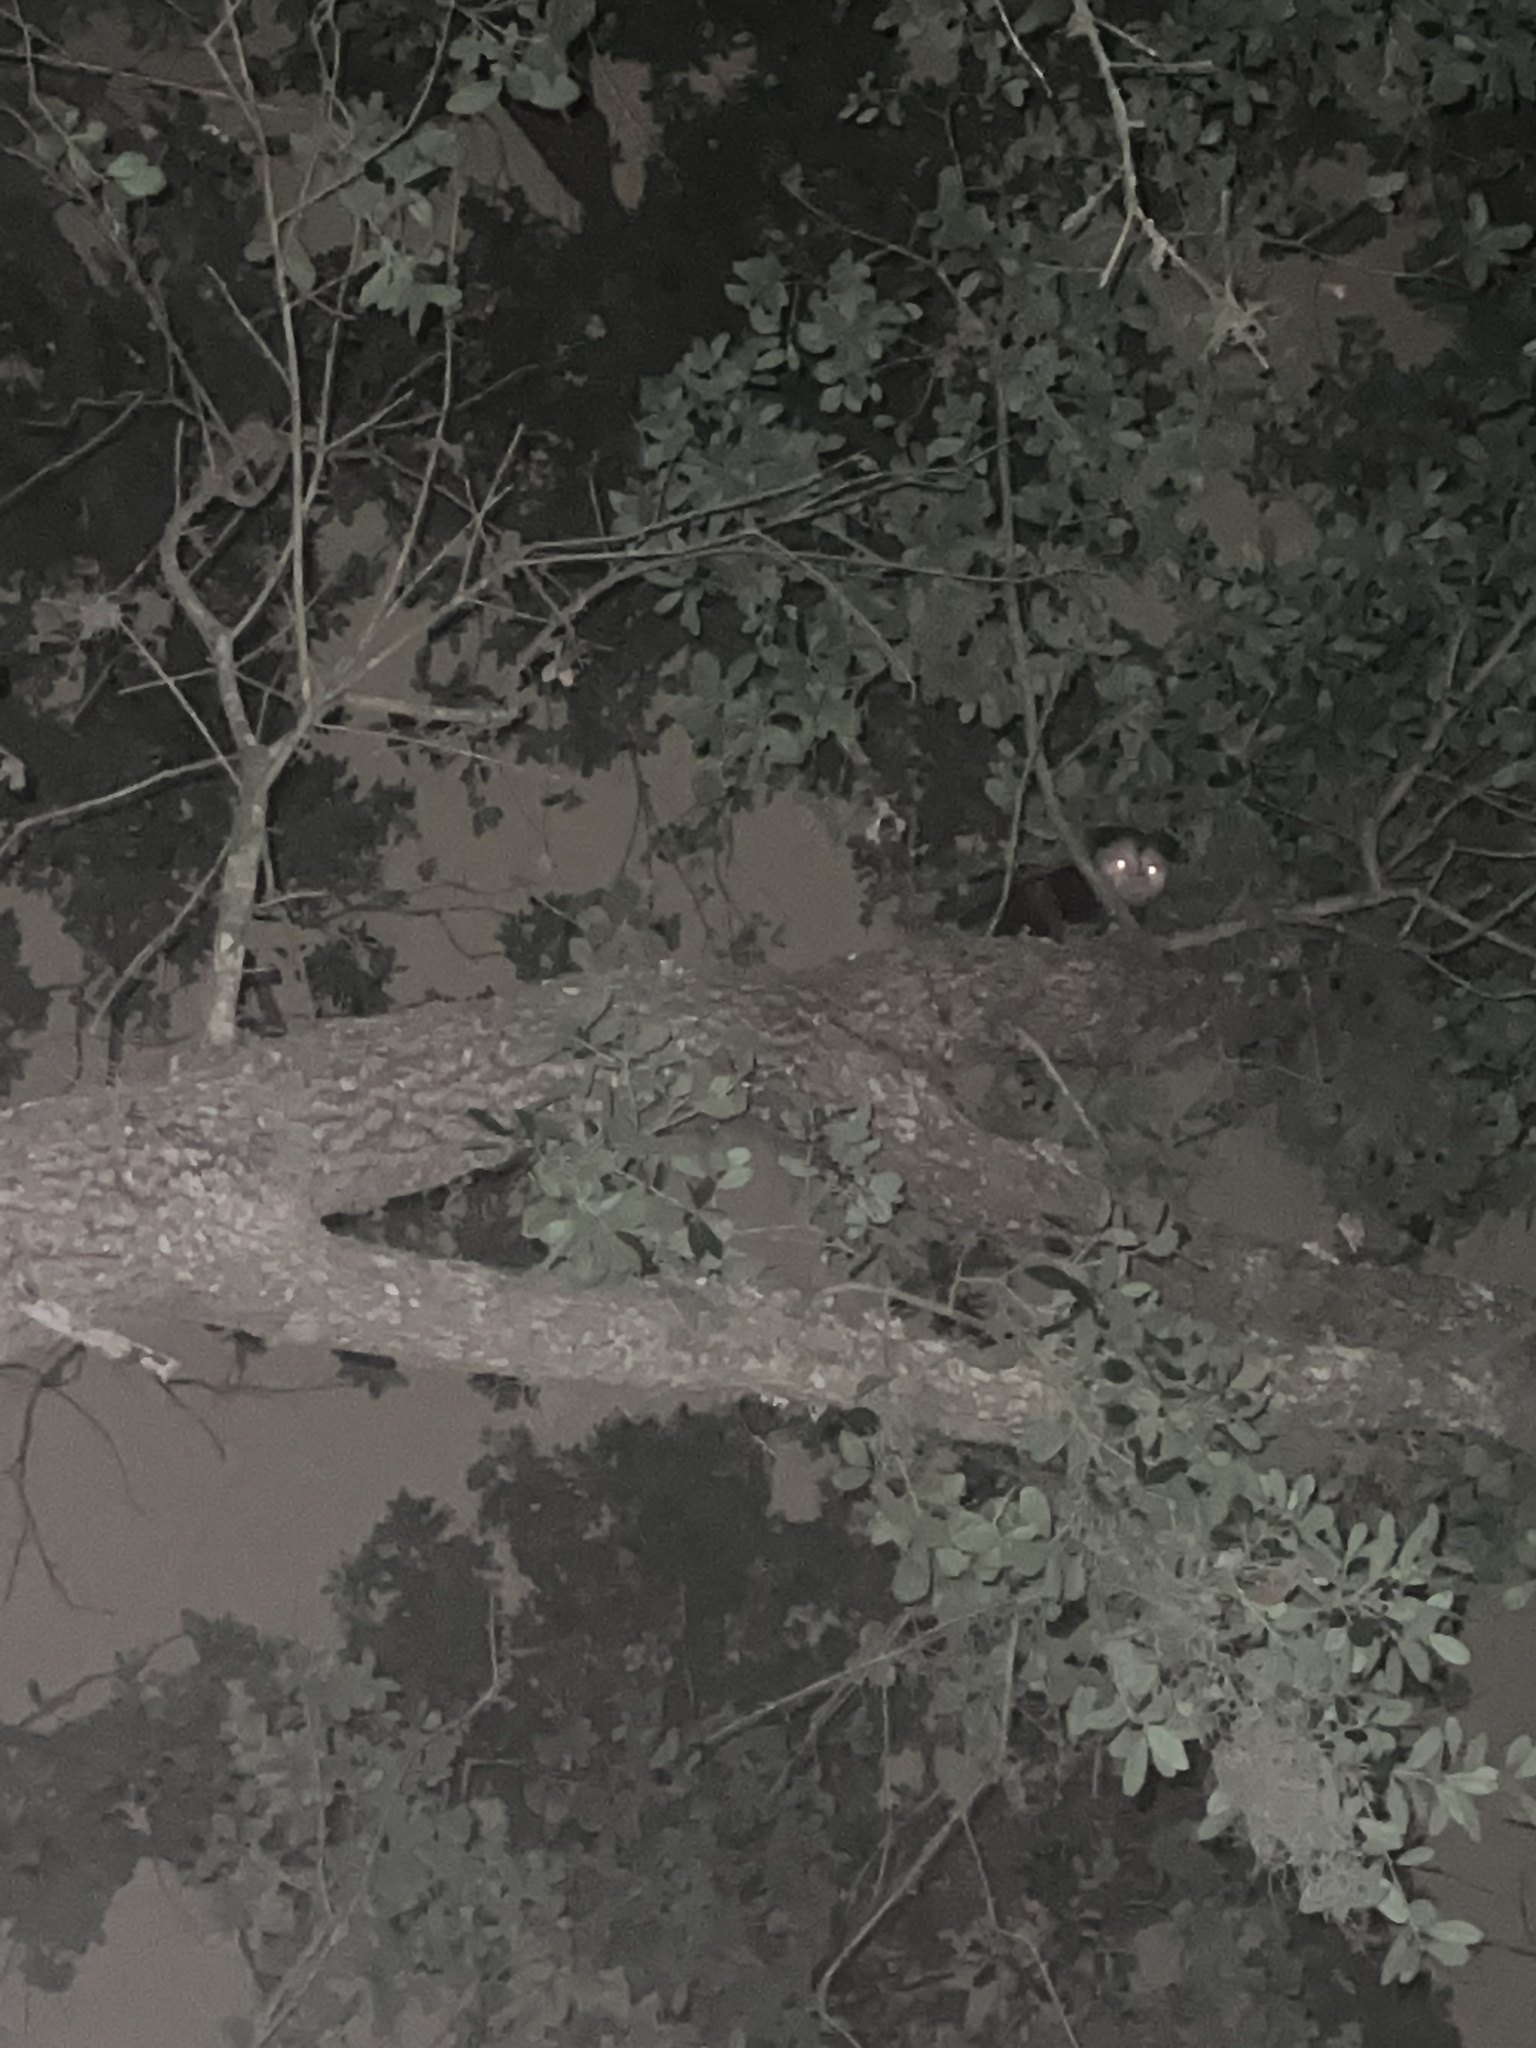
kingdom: Animalia
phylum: Chordata
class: Mammalia
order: Didelphimorphia
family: Didelphidae
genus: Didelphis
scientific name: Didelphis virginiana
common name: Virginia opossum
